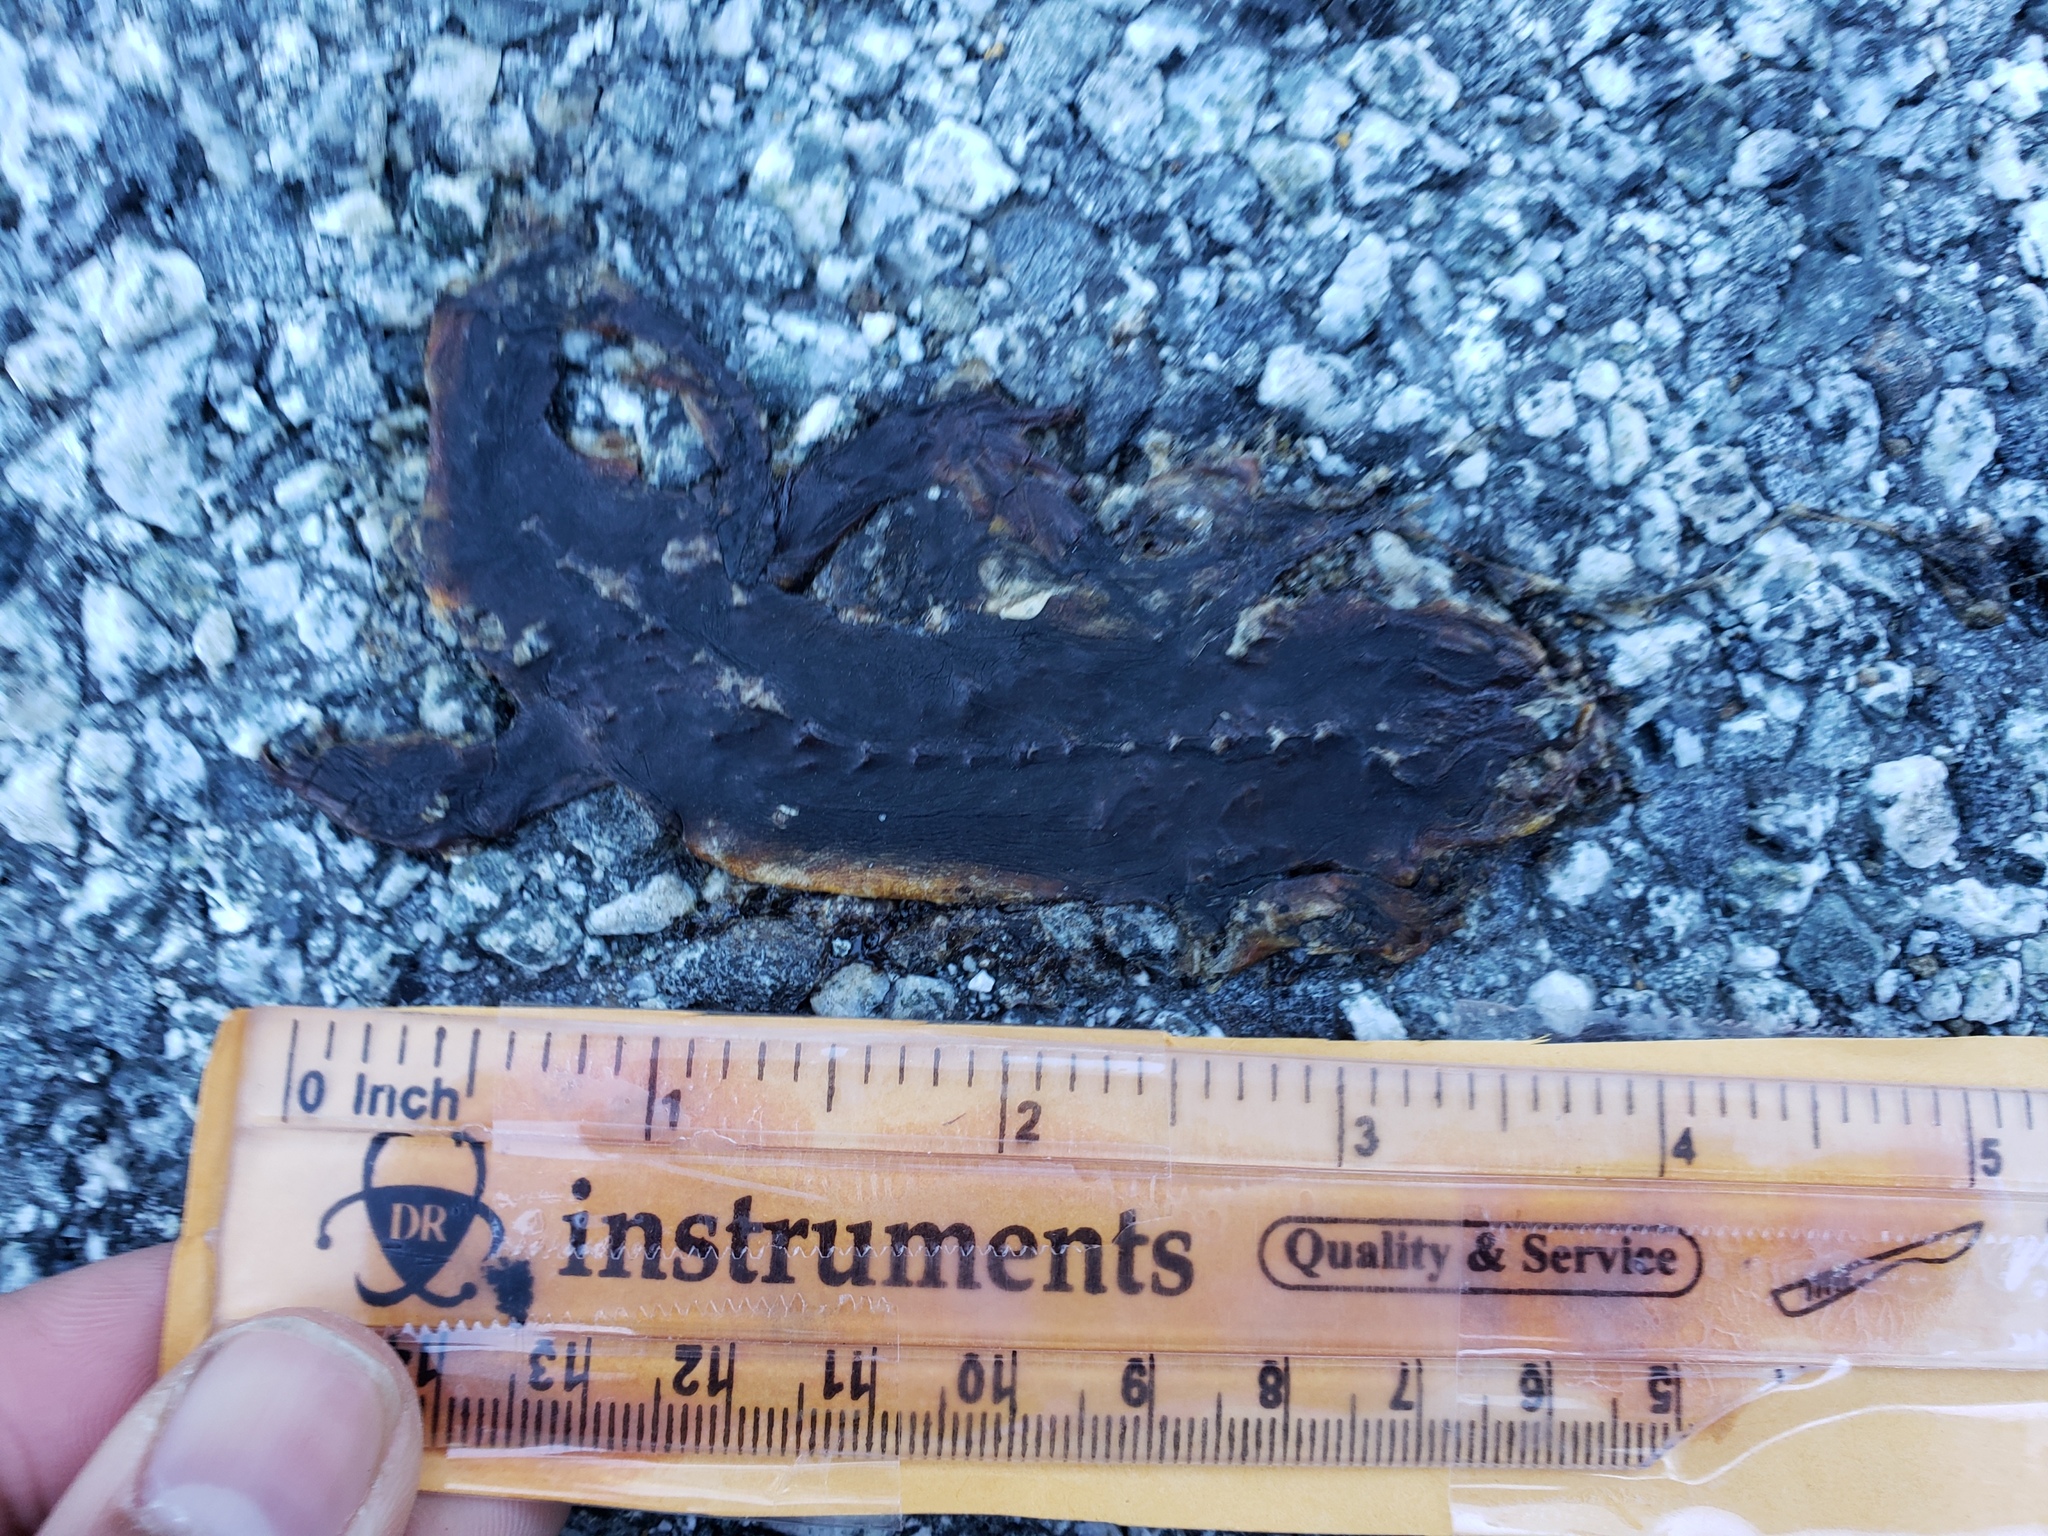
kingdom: Animalia
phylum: Chordata
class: Amphibia
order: Caudata
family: Salamandridae
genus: Taricha
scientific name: Taricha
